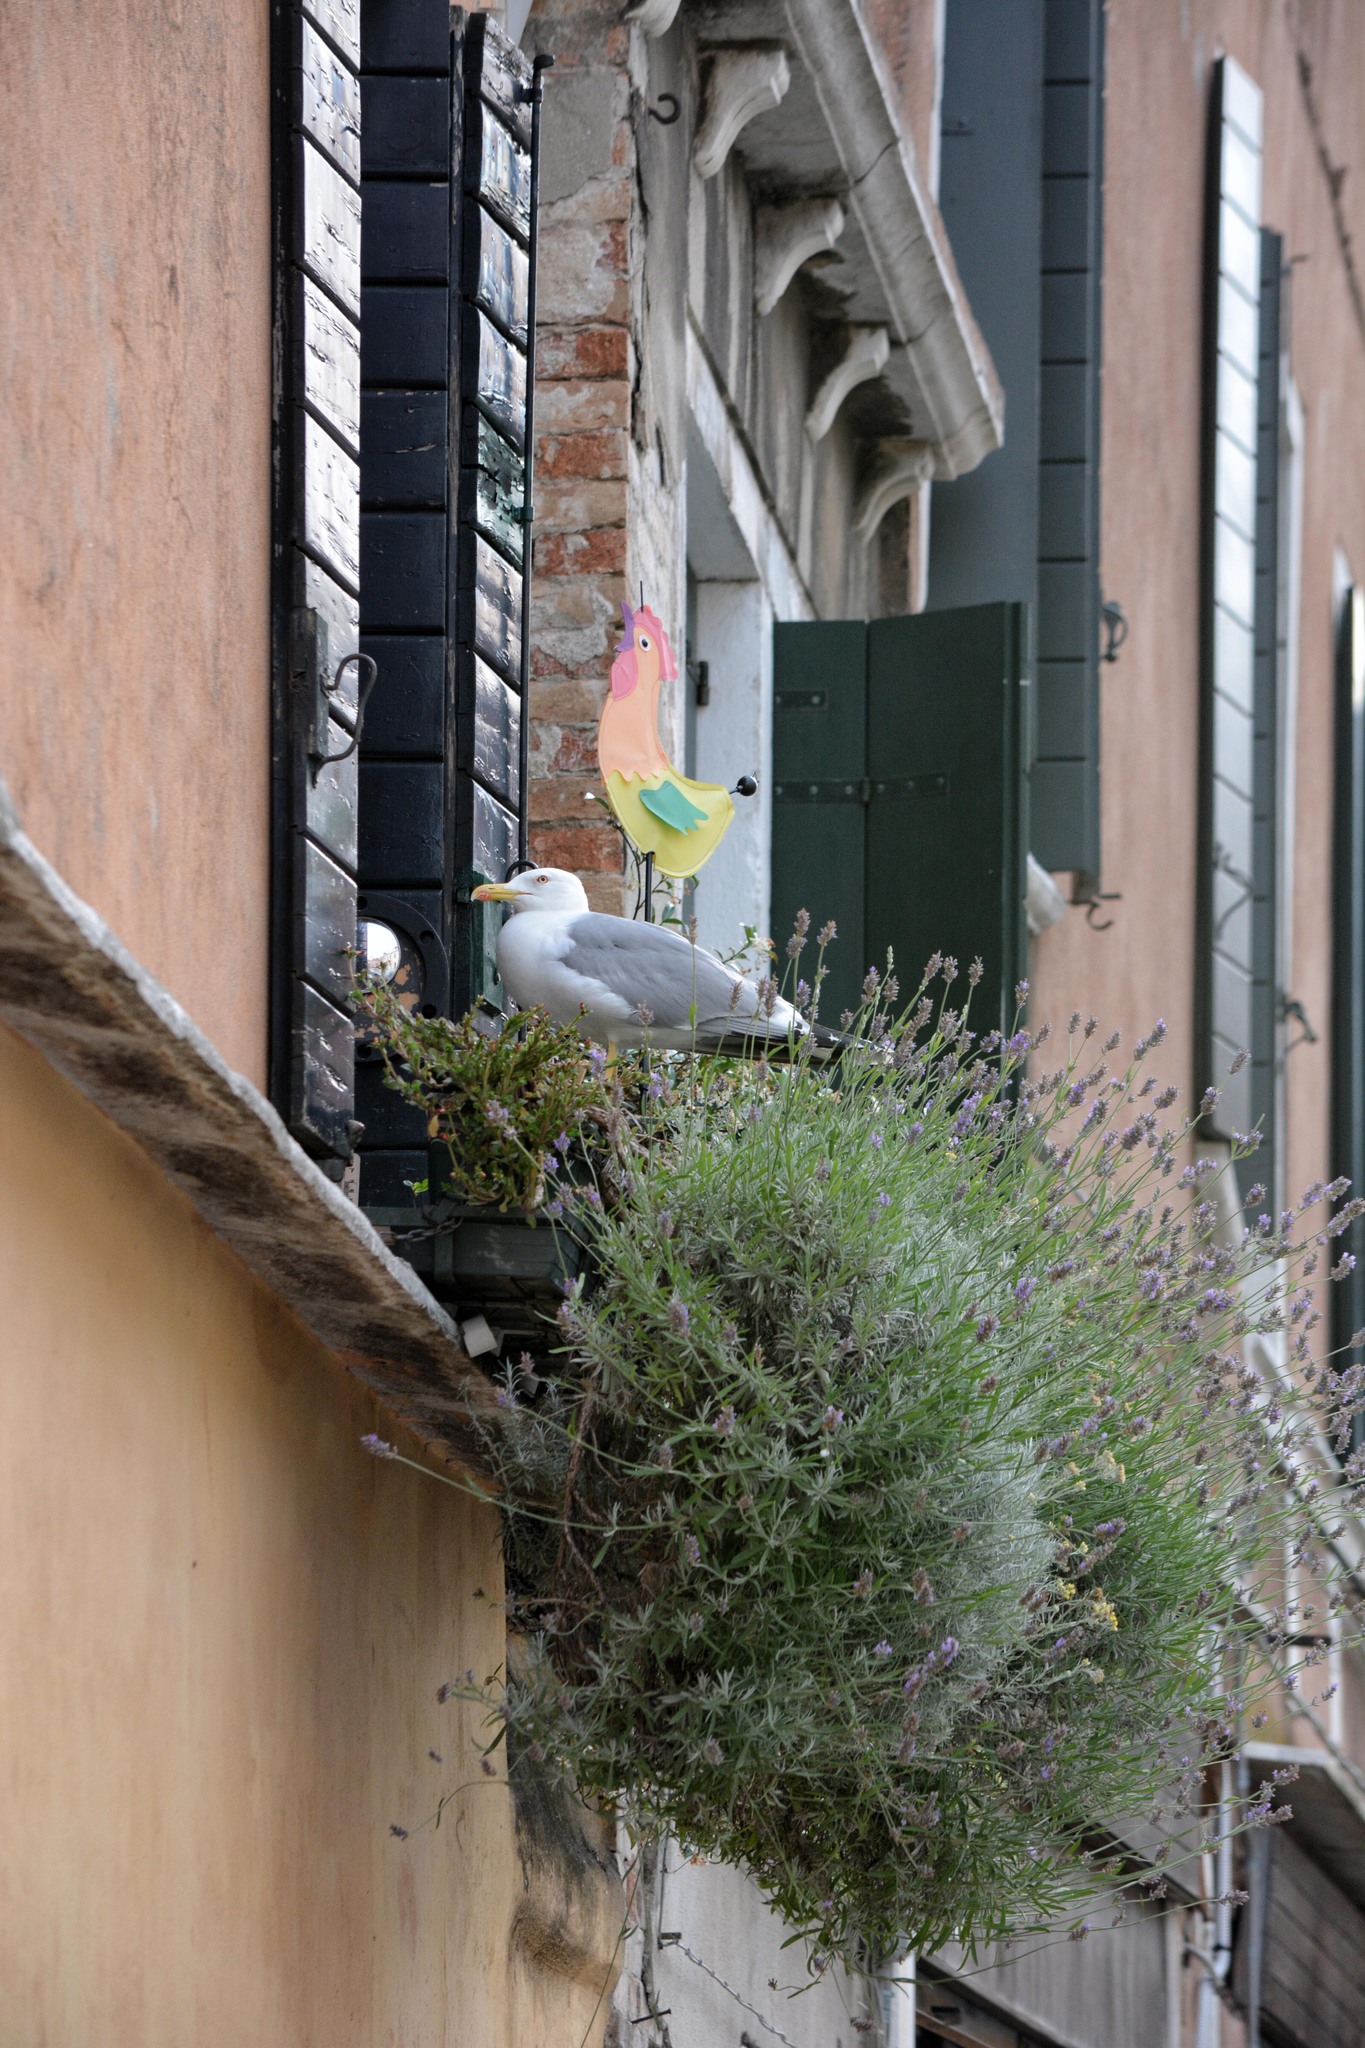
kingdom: Animalia
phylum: Chordata
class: Aves
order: Charadriiformes
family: Laridae
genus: Larus
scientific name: Larus michahellis
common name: Yellow-legged gull
